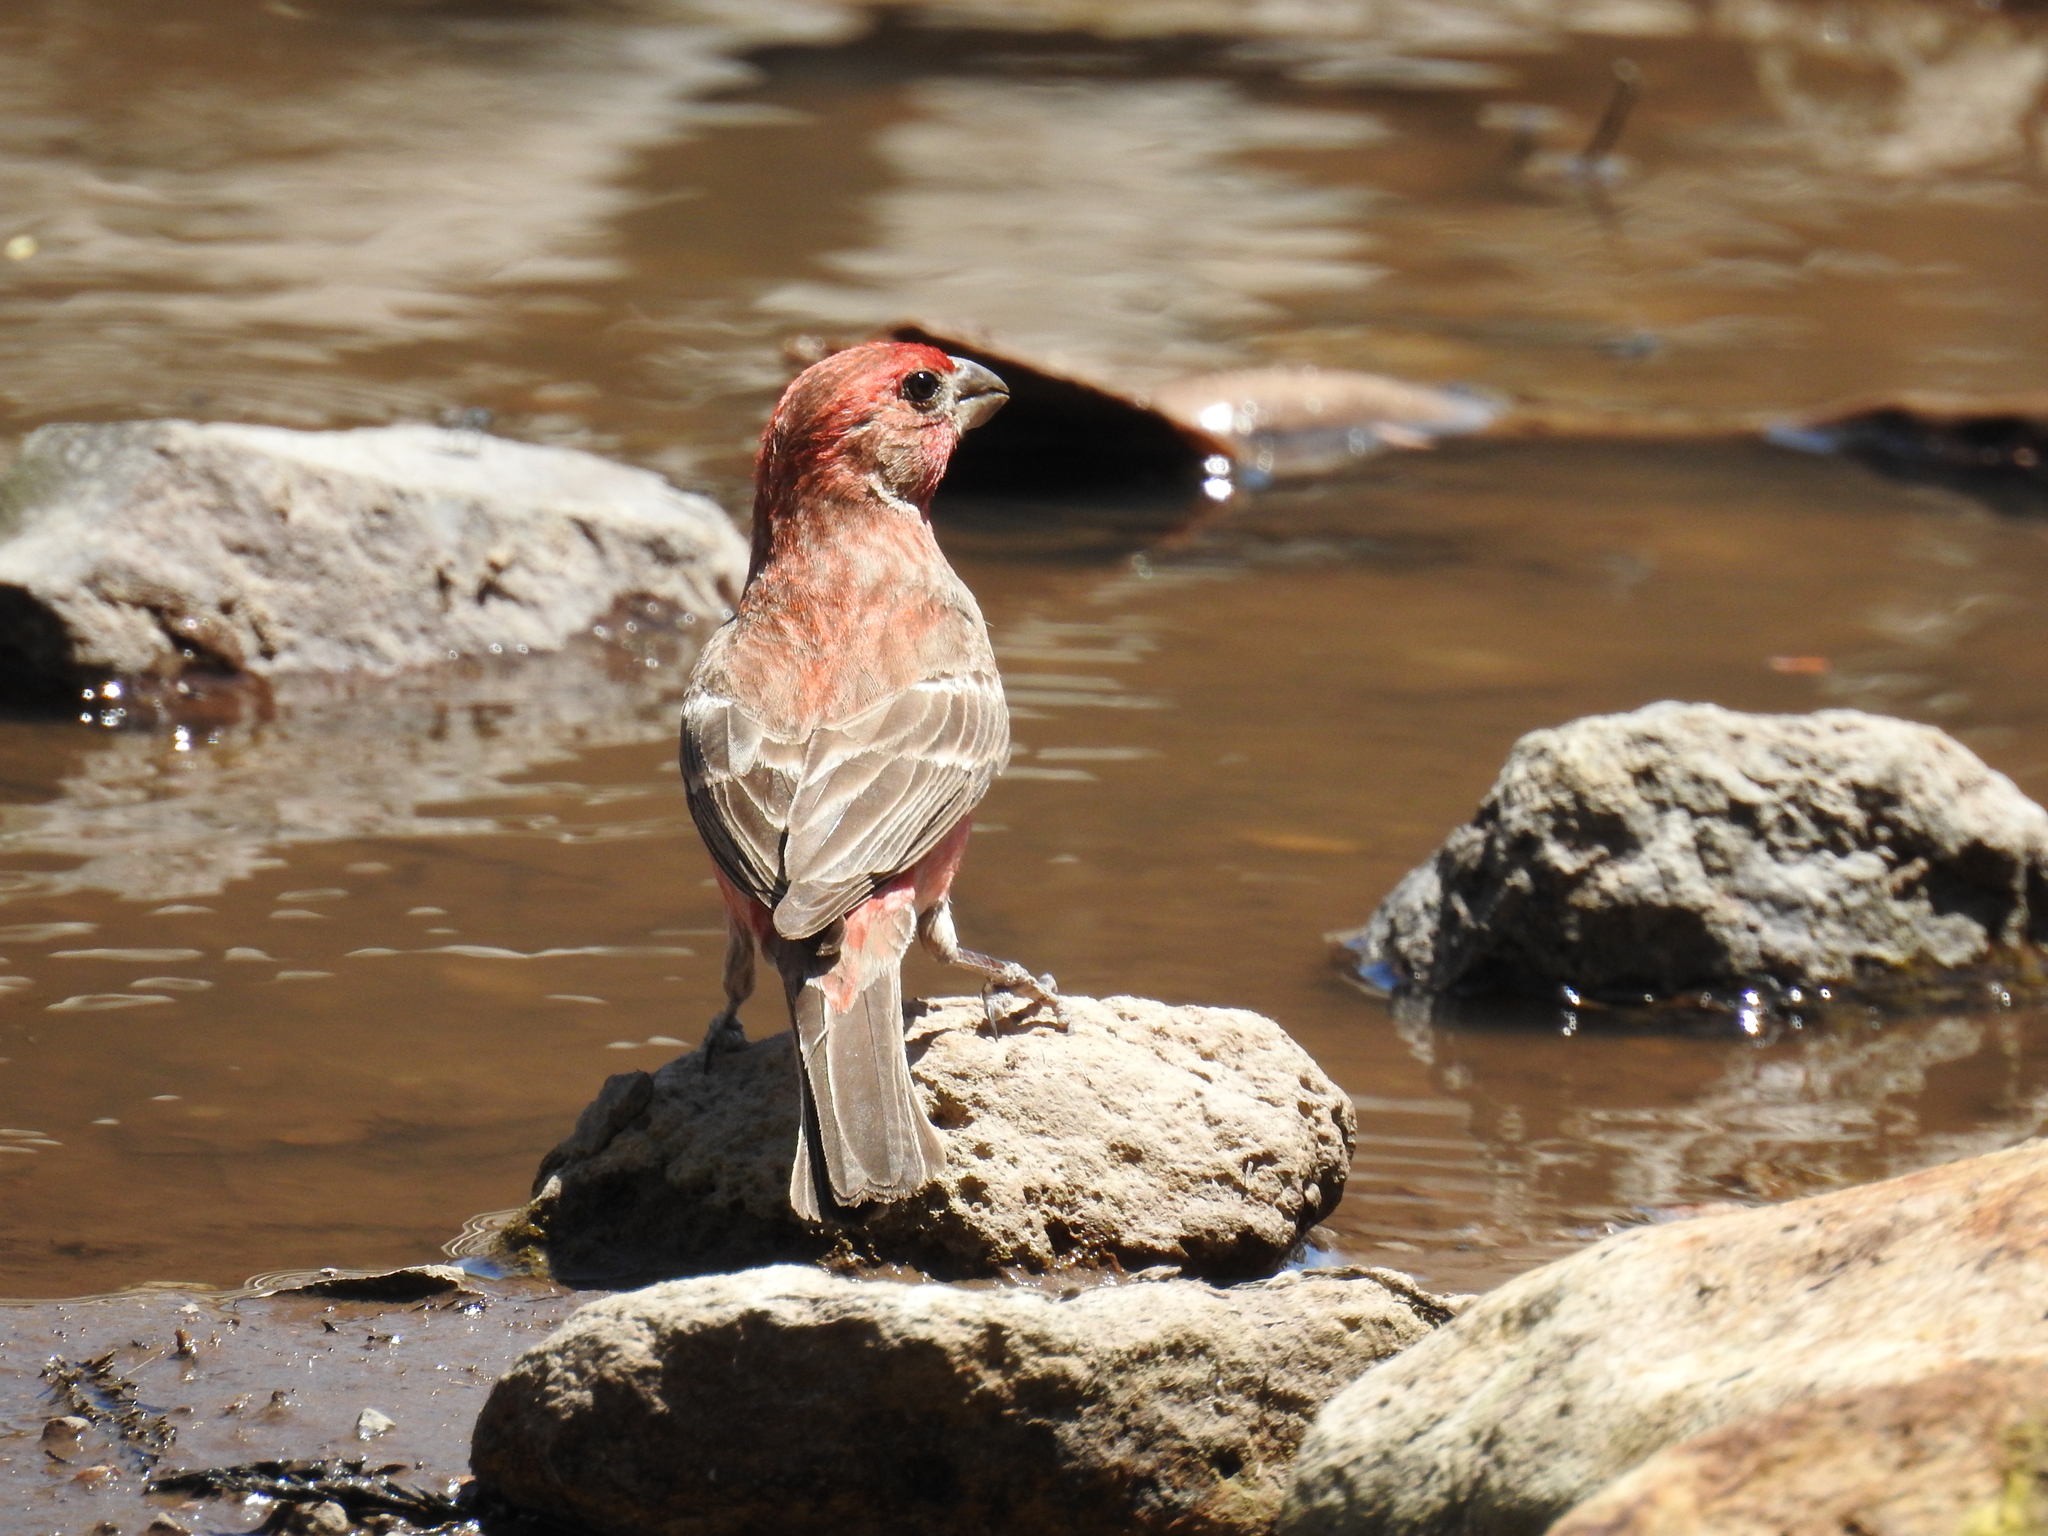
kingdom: Animalia
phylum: Chordata
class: Aves
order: Passeriformes
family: Fringillidae
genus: Haemorhous
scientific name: Haemorhous mexicanus
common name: House finch
